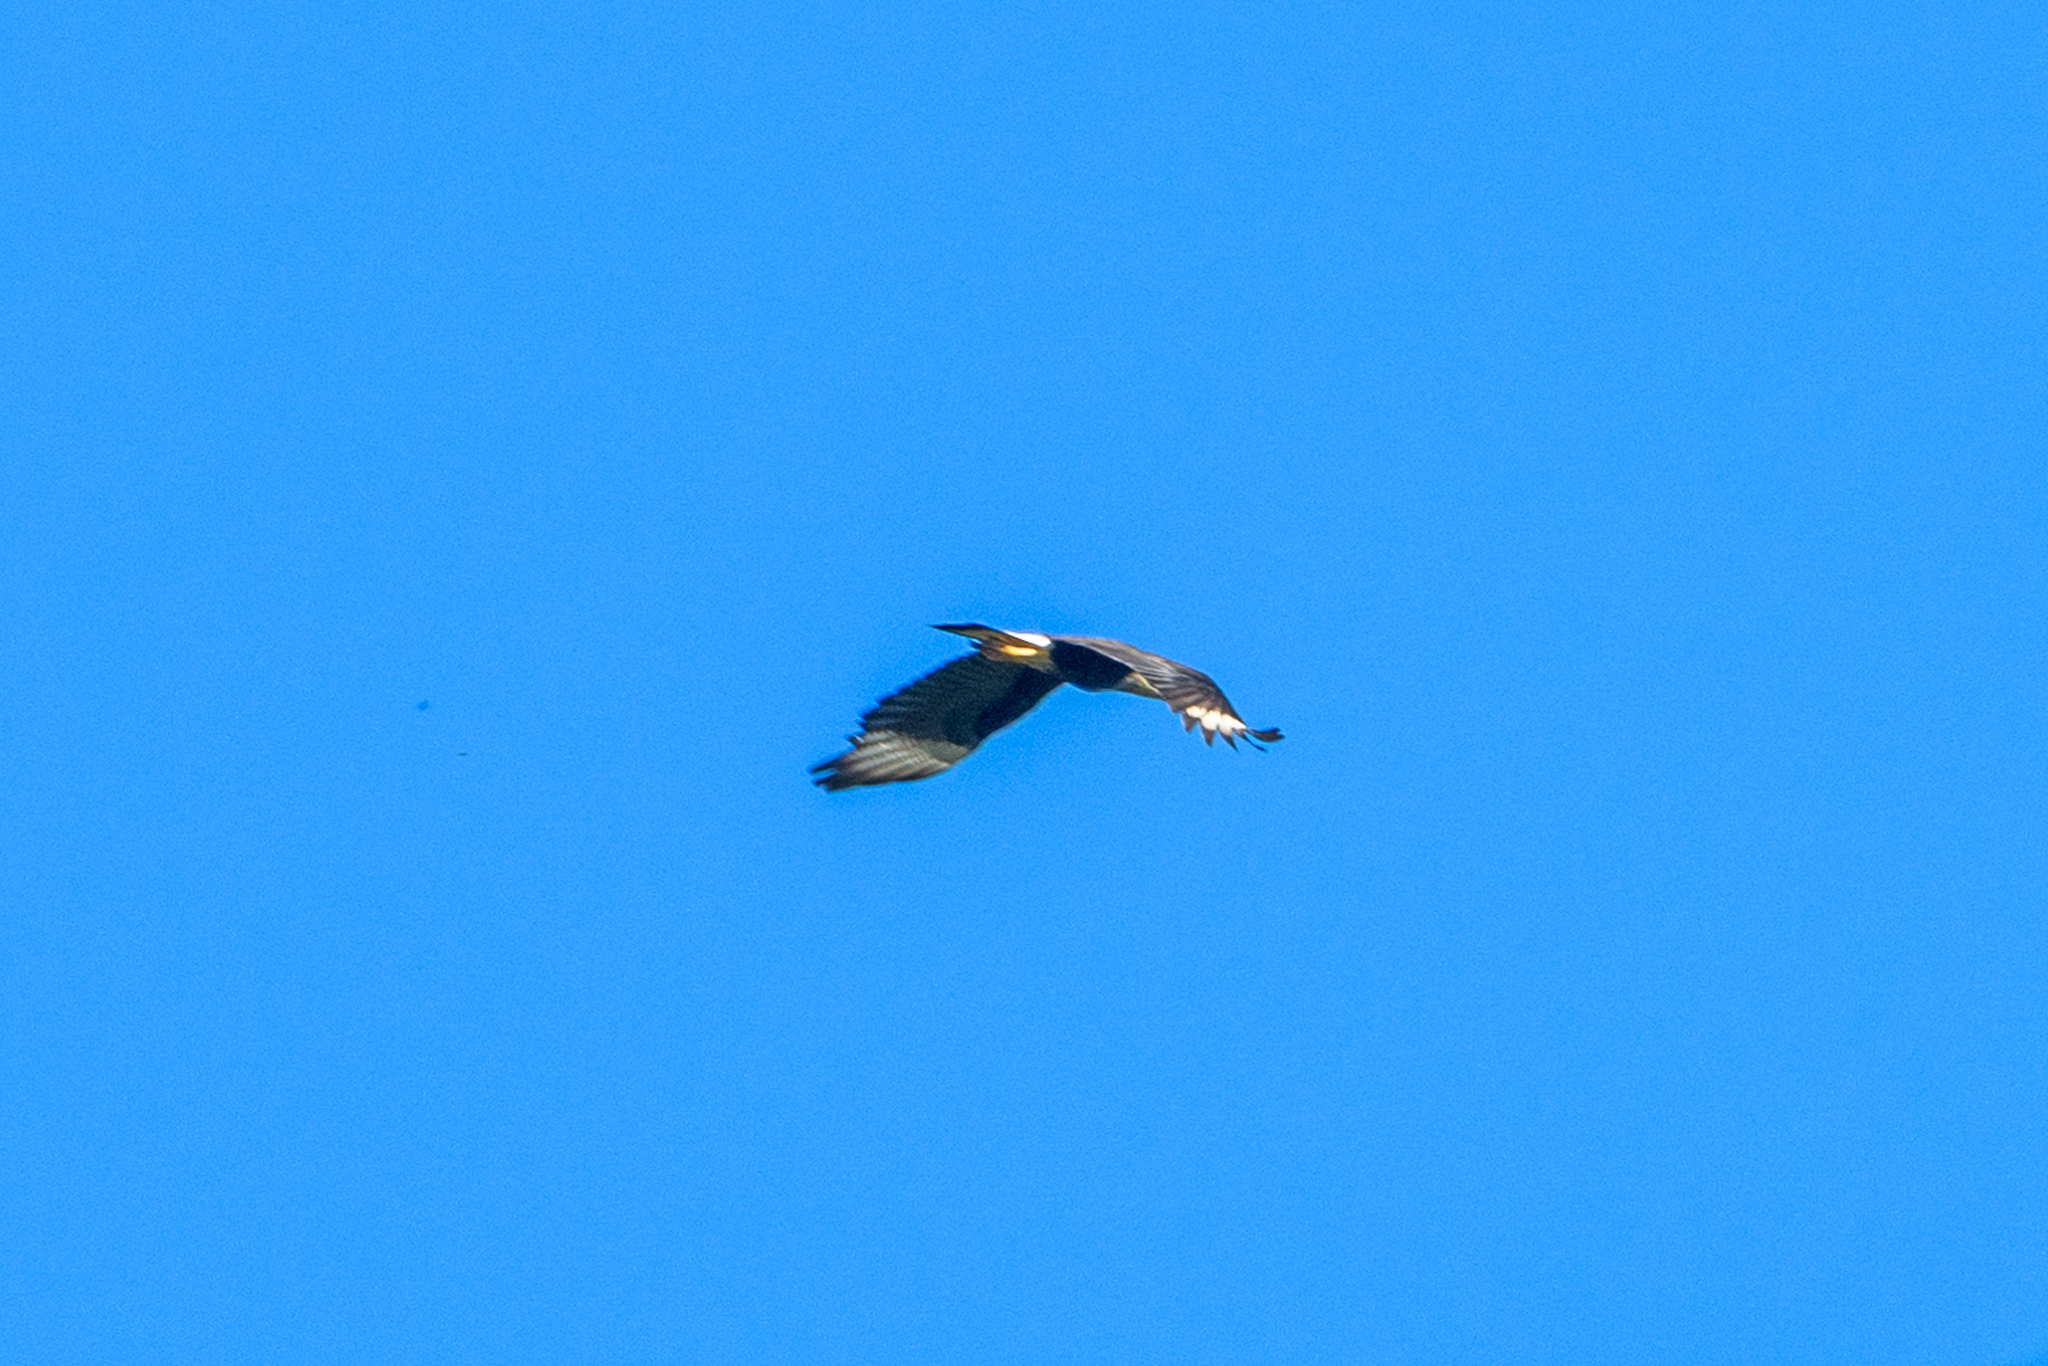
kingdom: Animalia
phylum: Chordata
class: Aves
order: Falconiformes
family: Falconidae
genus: Caracara
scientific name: Caracara plancus
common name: Southern caracara
